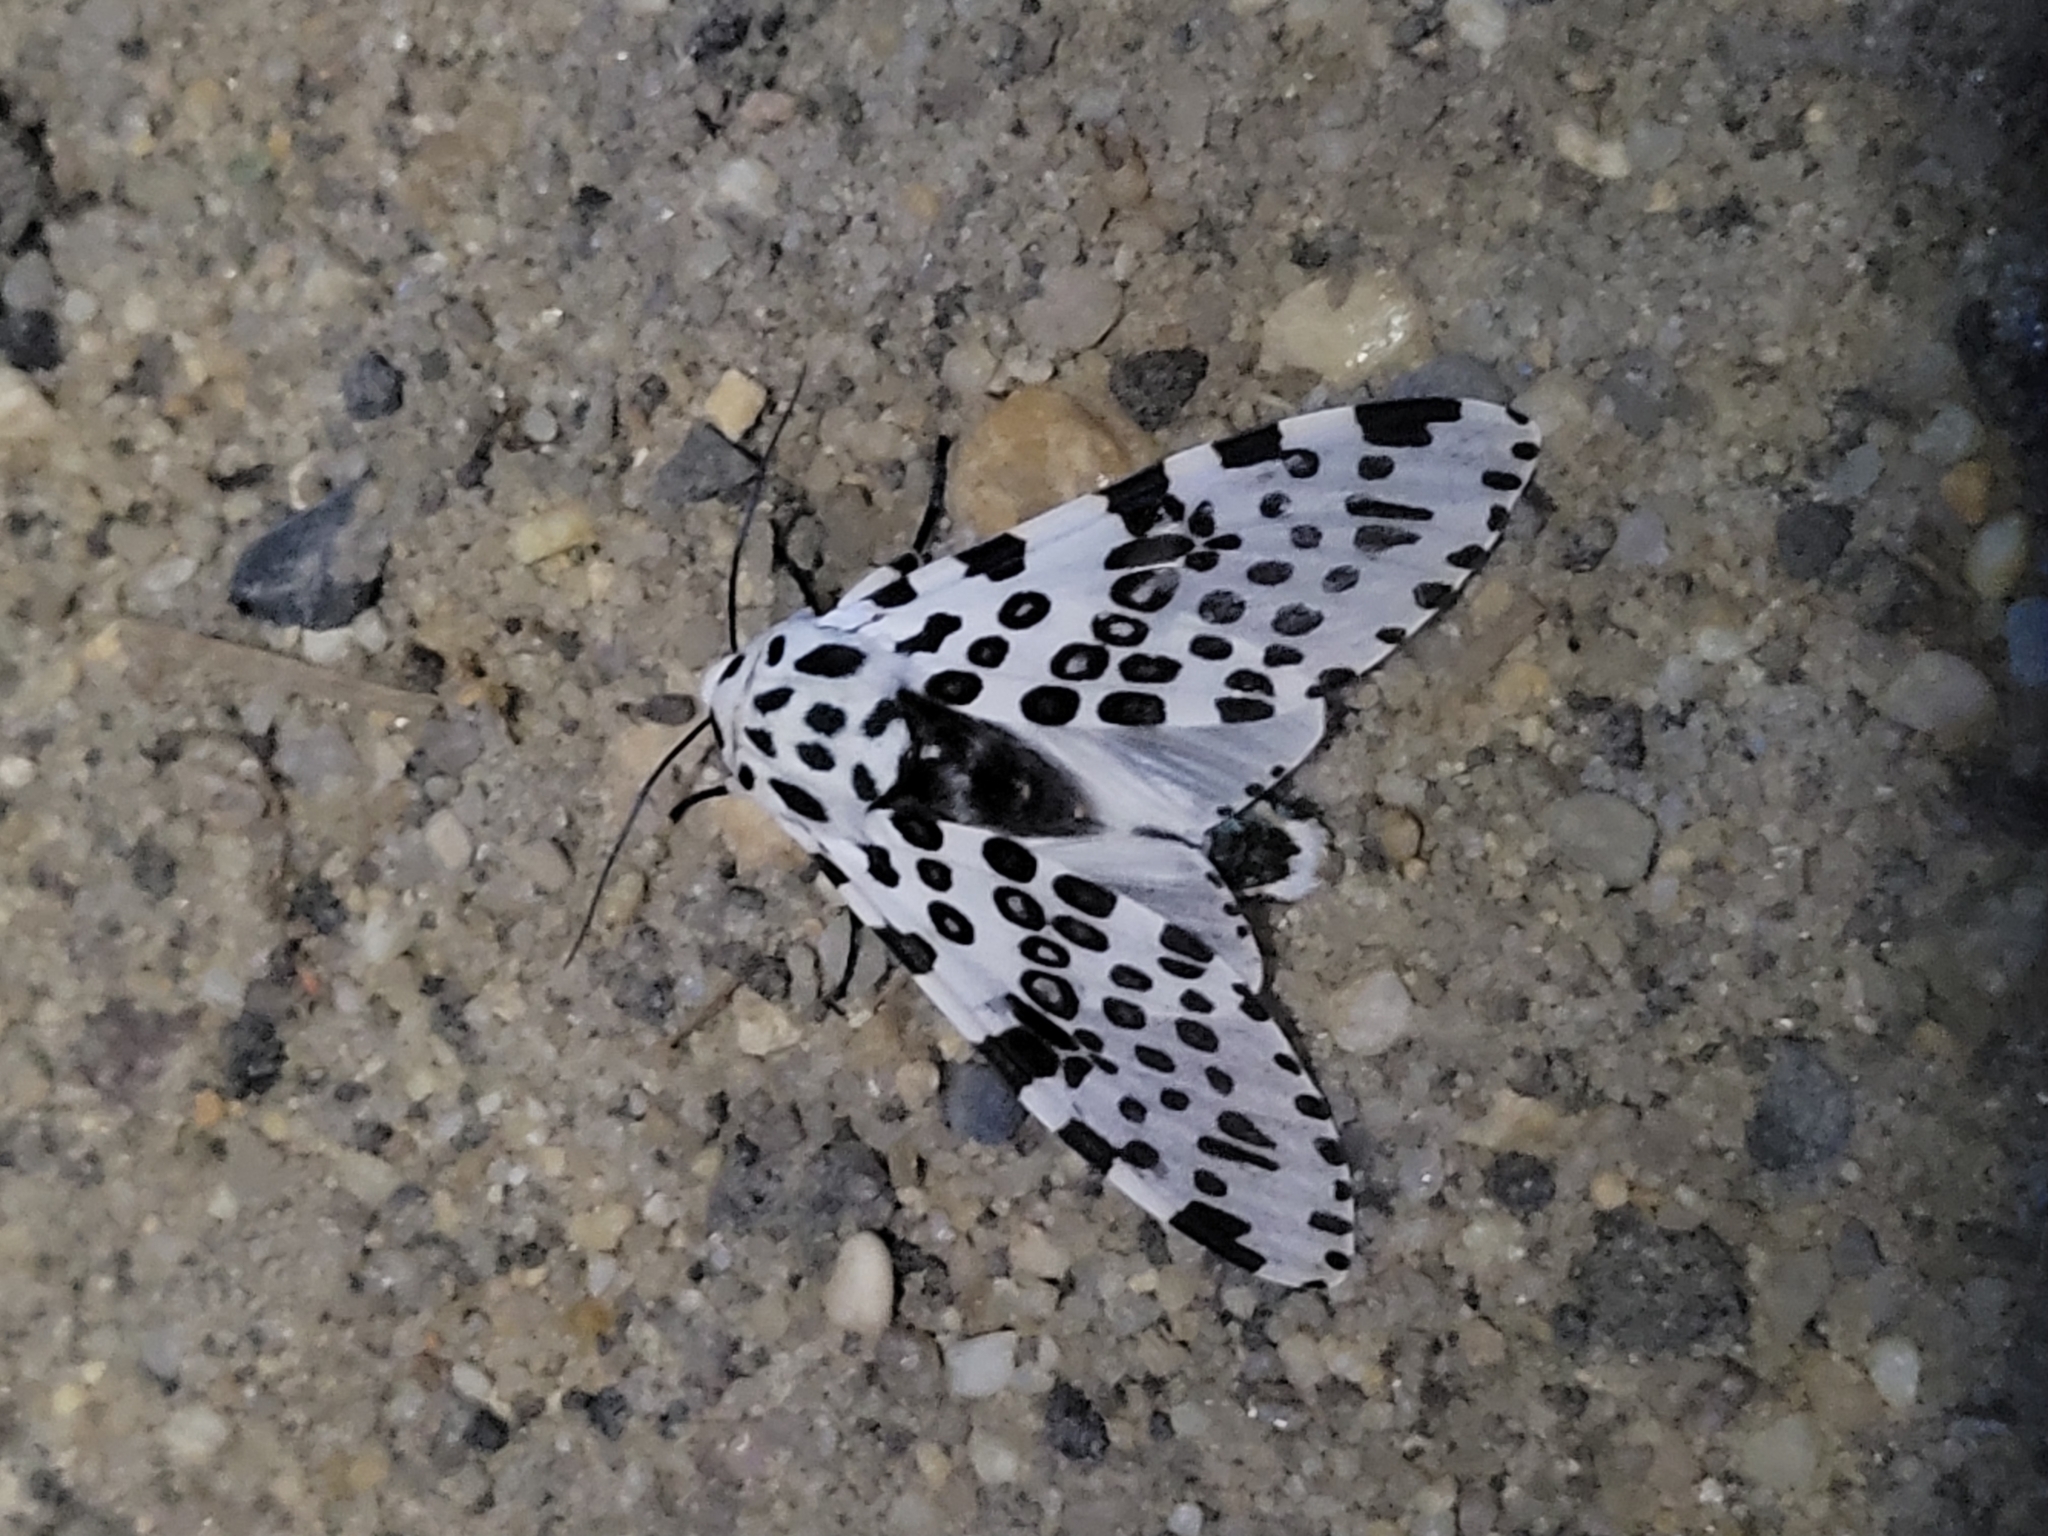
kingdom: Animalia
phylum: Arthropoda
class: Insecta
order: Lepidoptera
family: Erebidae
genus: Hypercompe
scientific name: Hypercompe scribonia
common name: Giant leopard moth
